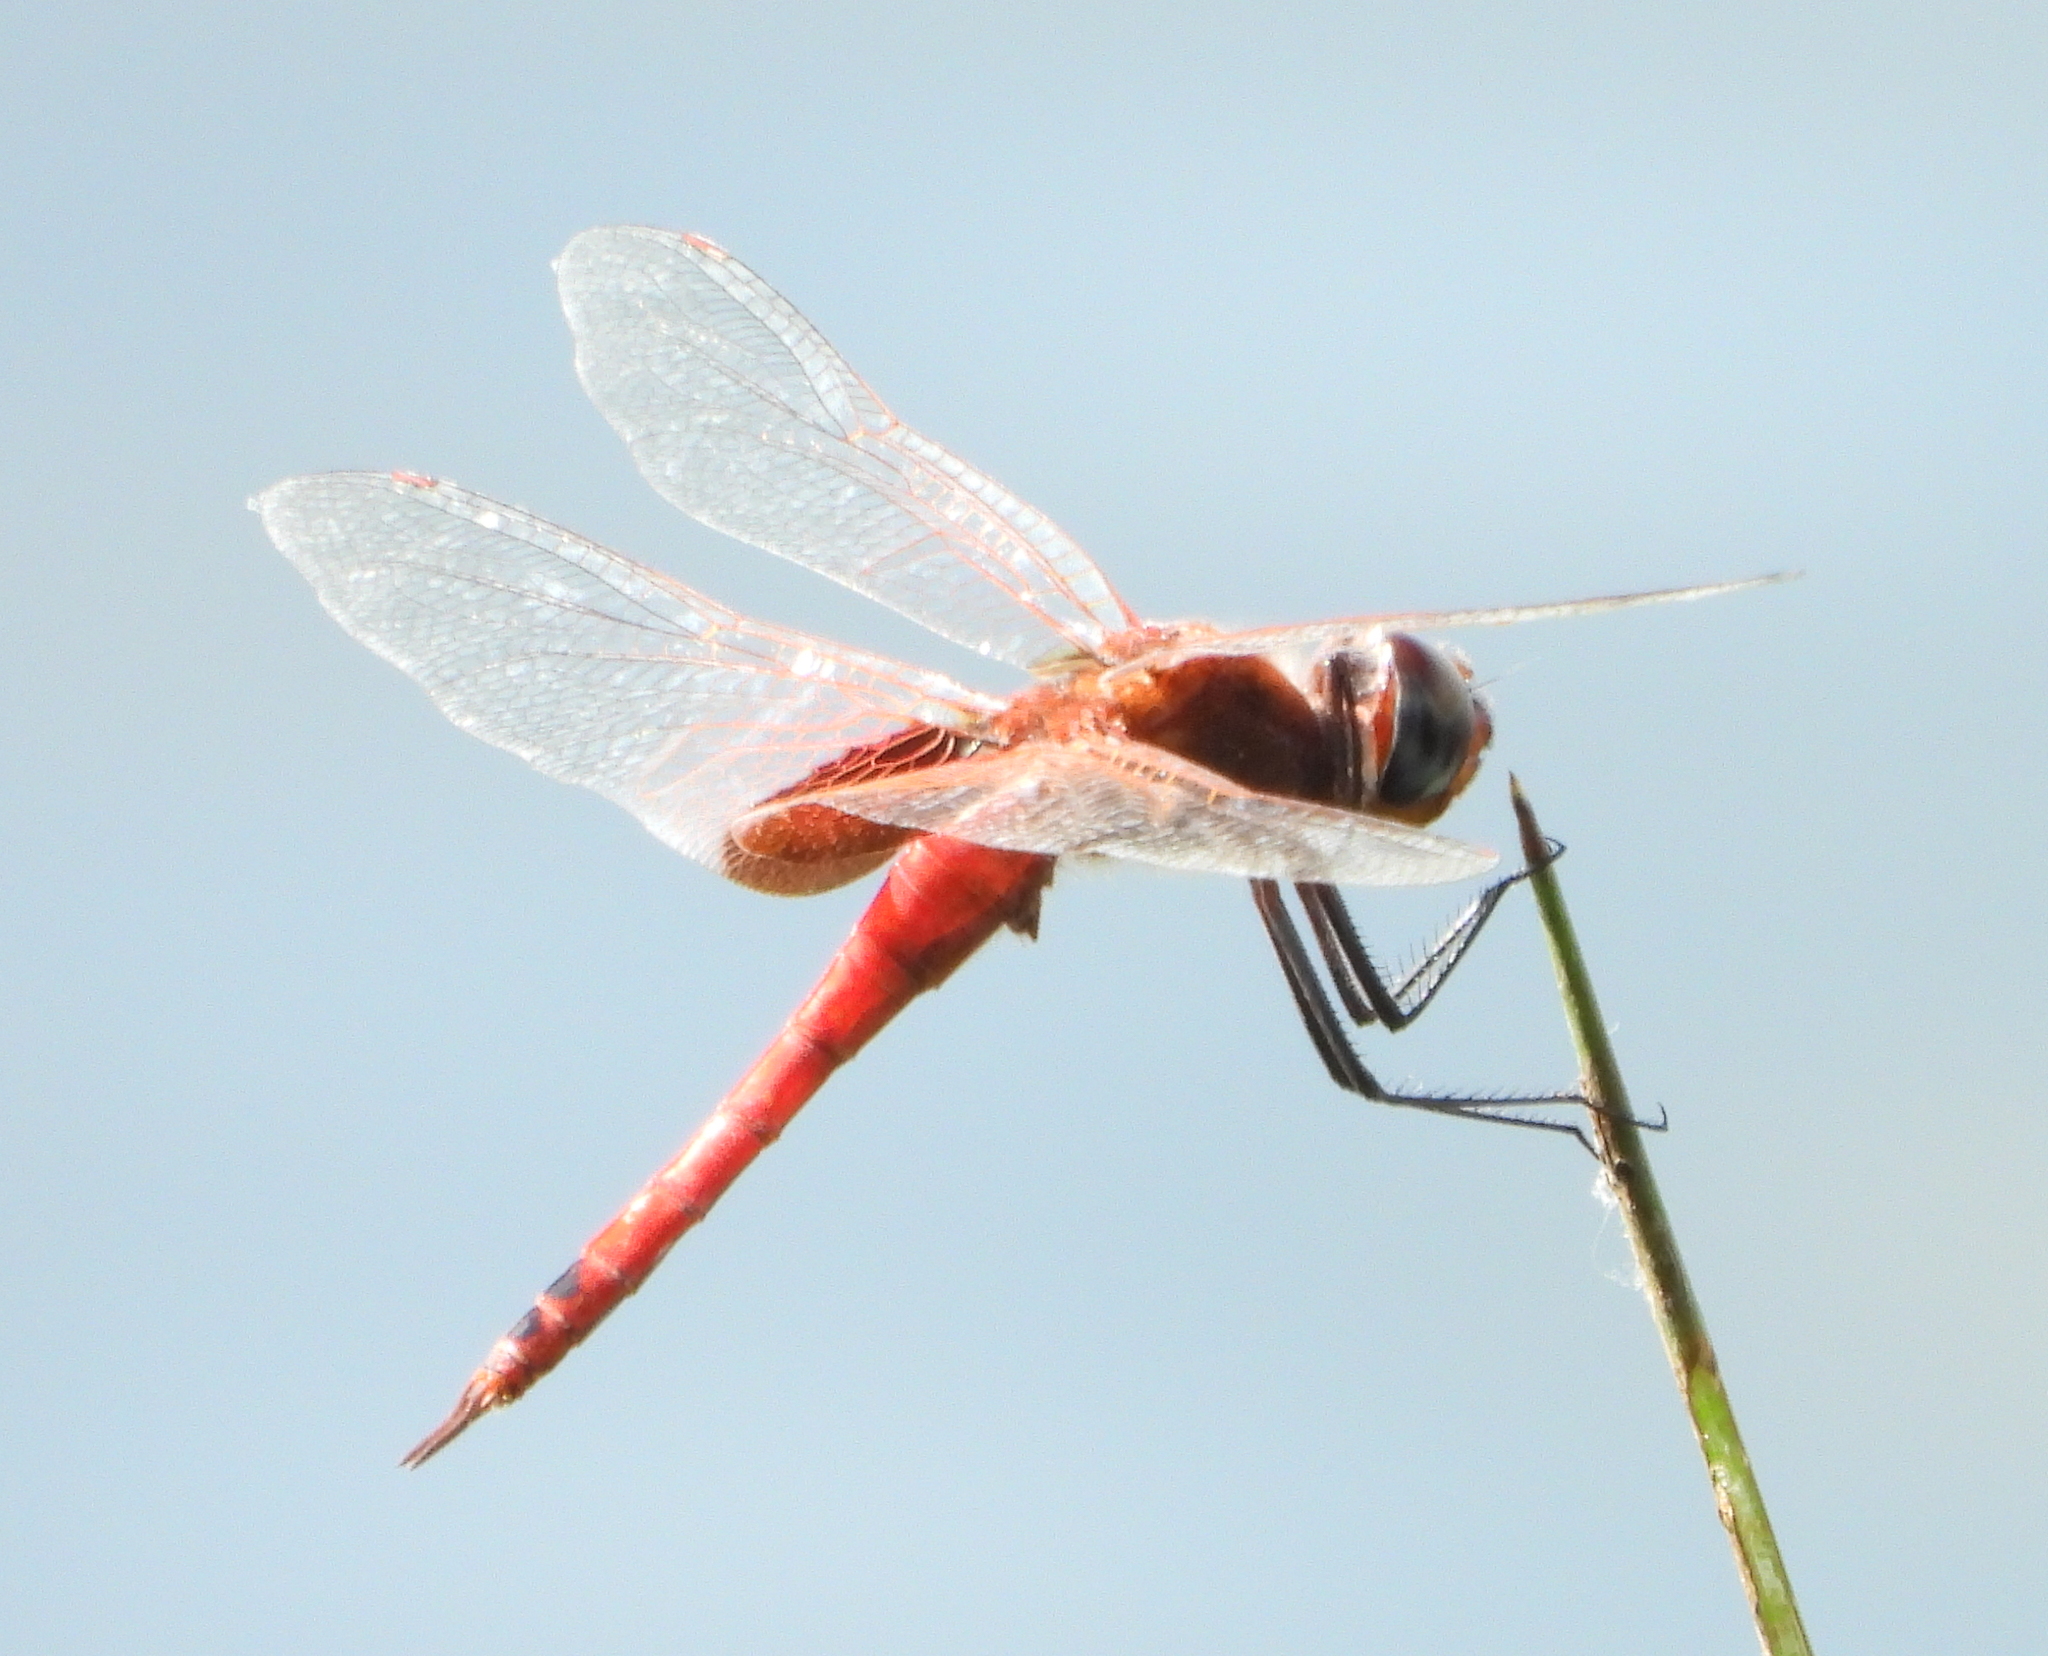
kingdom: Animalia
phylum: Arthropoda
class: Insecta
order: Odonata
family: Libellulidae
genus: Tramea
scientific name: Tramea limbata
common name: Ferruginous glider
